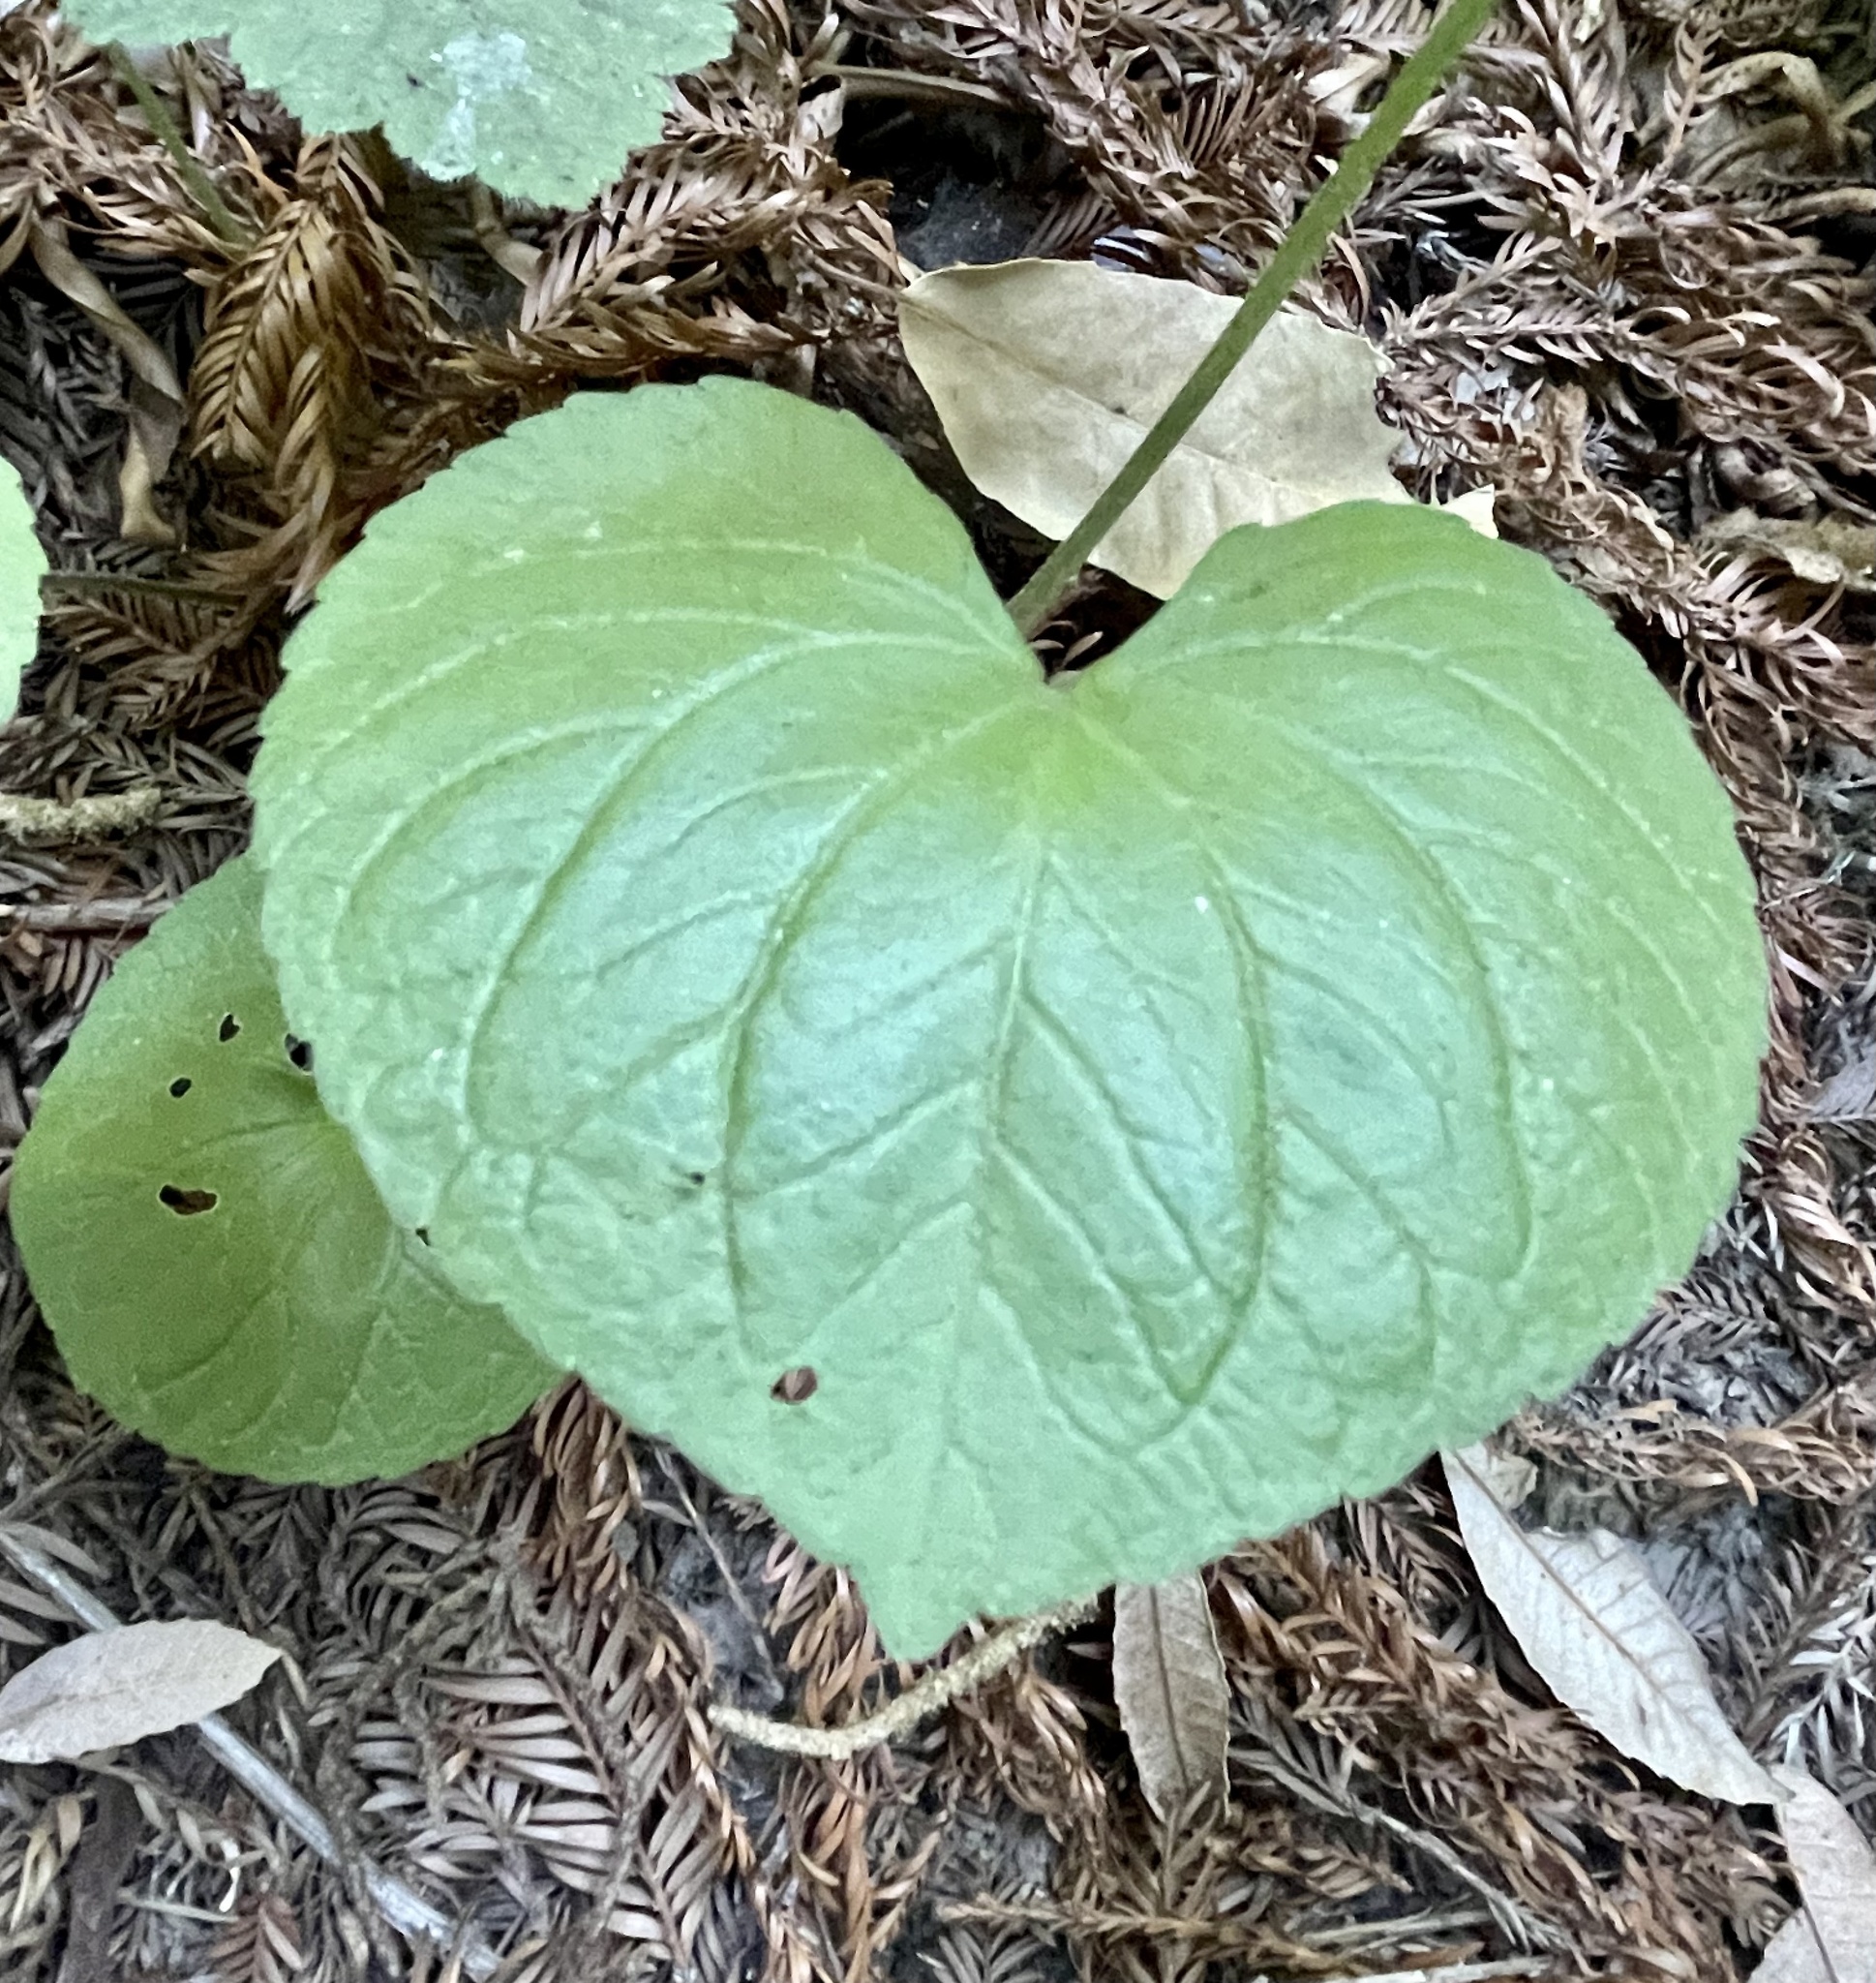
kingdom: Plantae
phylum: Tracheophyta
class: Magnoliopsida
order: Malpighiales
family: Violaceae
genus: Viola
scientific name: Viola glabella
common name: Stream violet
